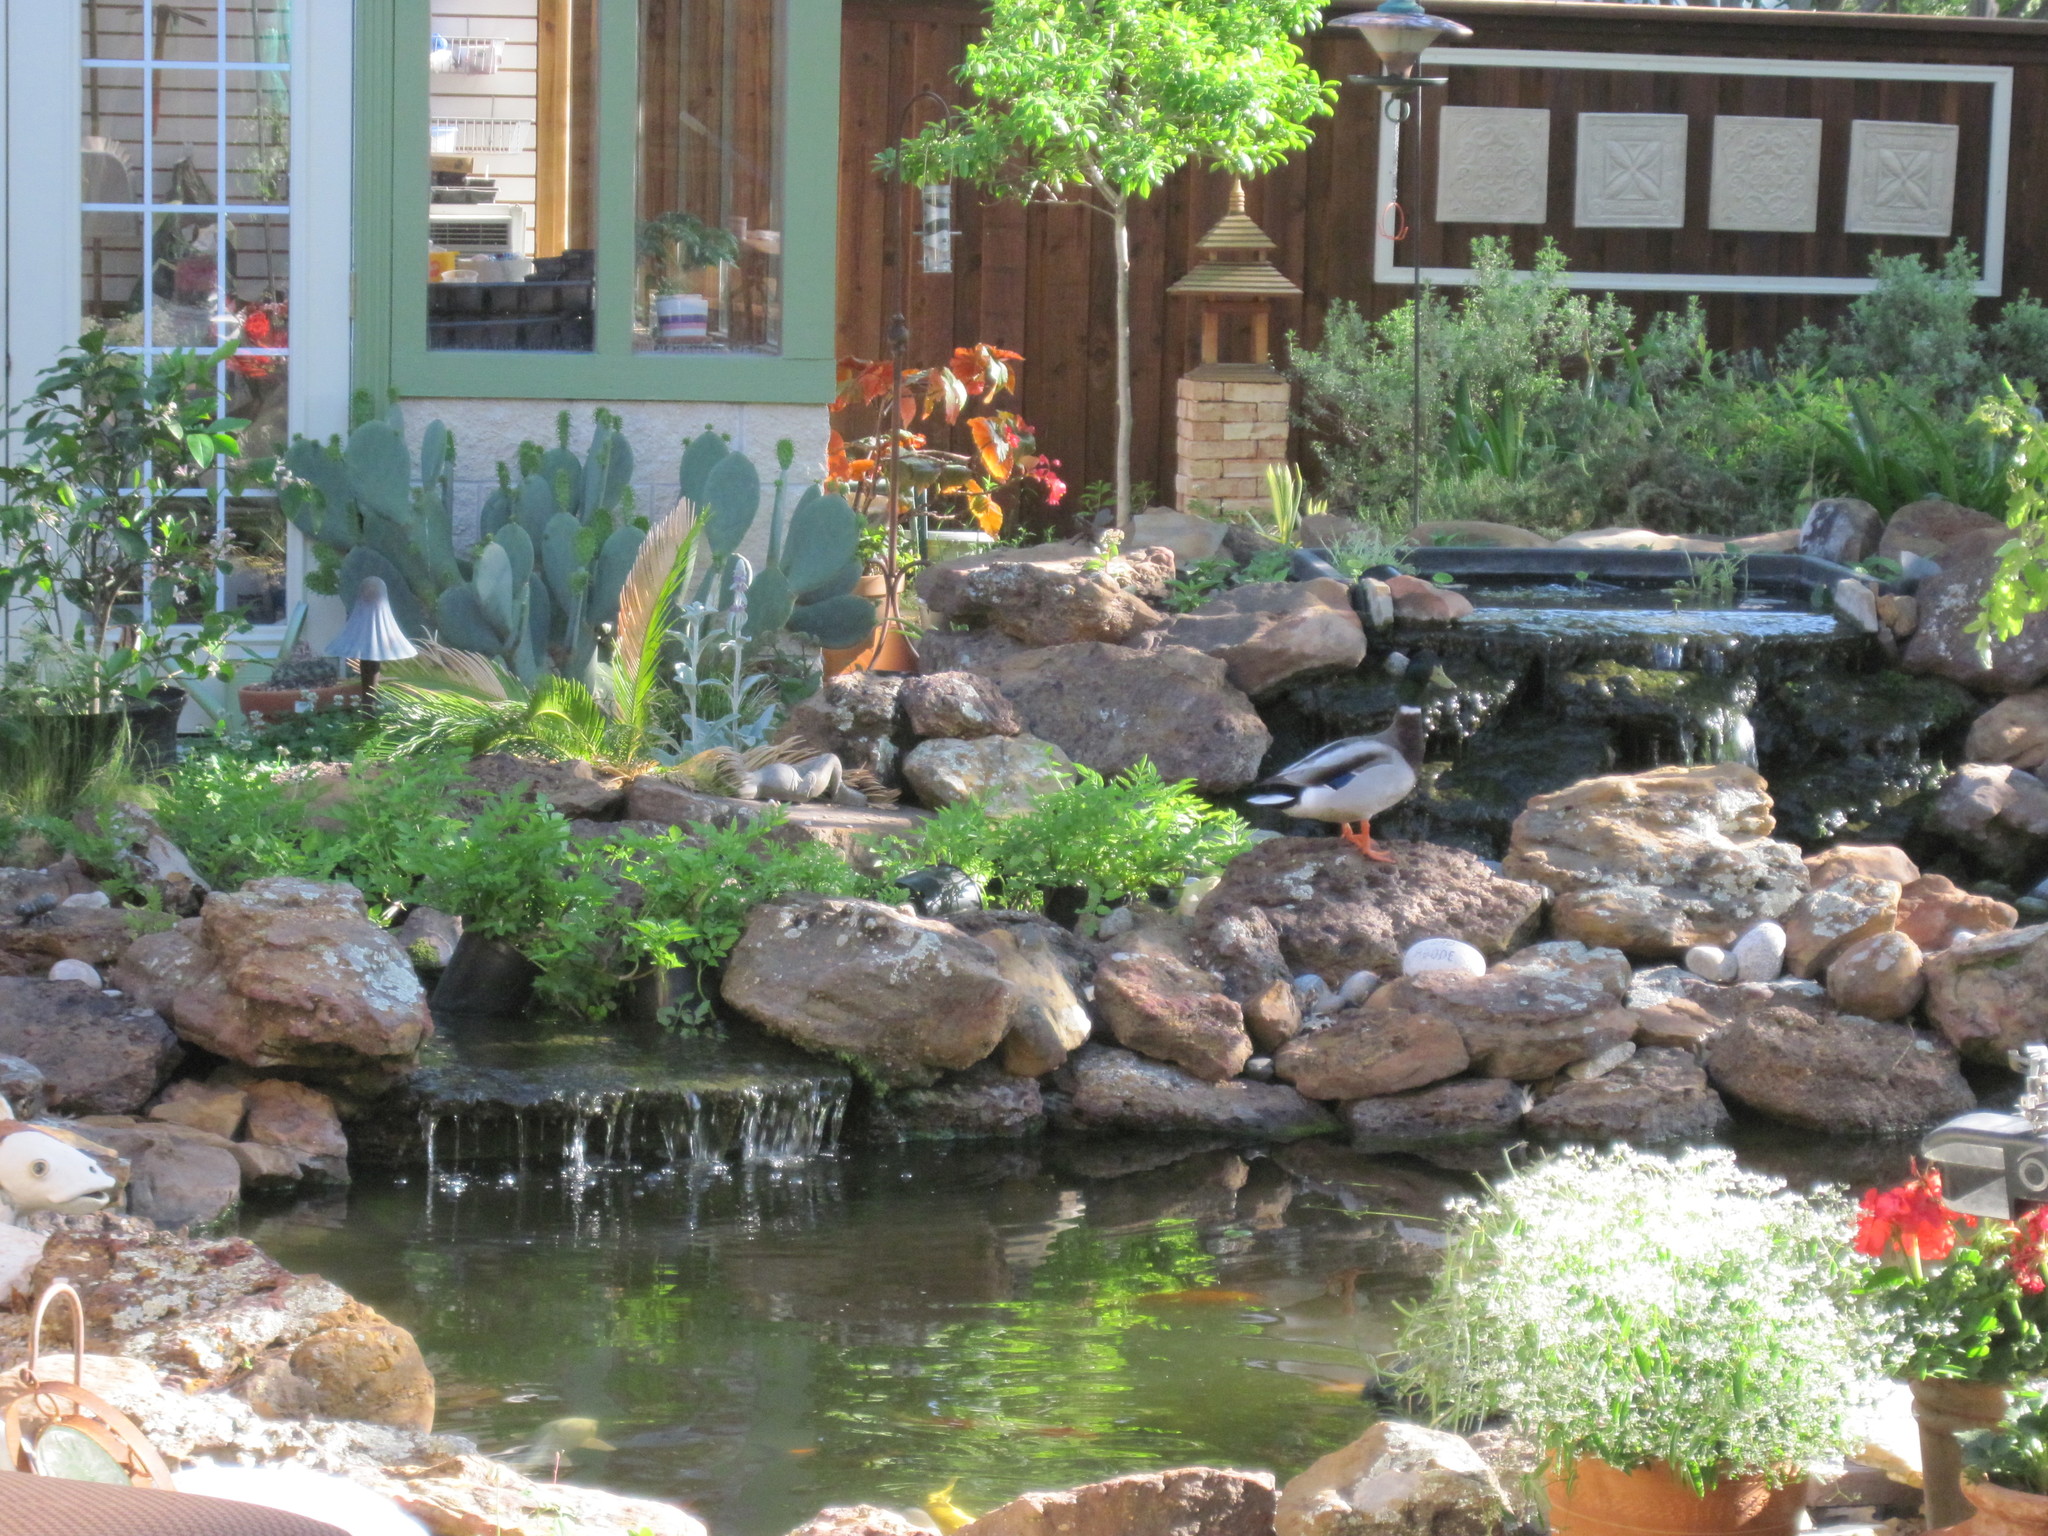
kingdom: Animalia
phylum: Chordata
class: Aves
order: Anseriformes
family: Anatidae
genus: Anas
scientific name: Anas platyrhynchos
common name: Mallard
